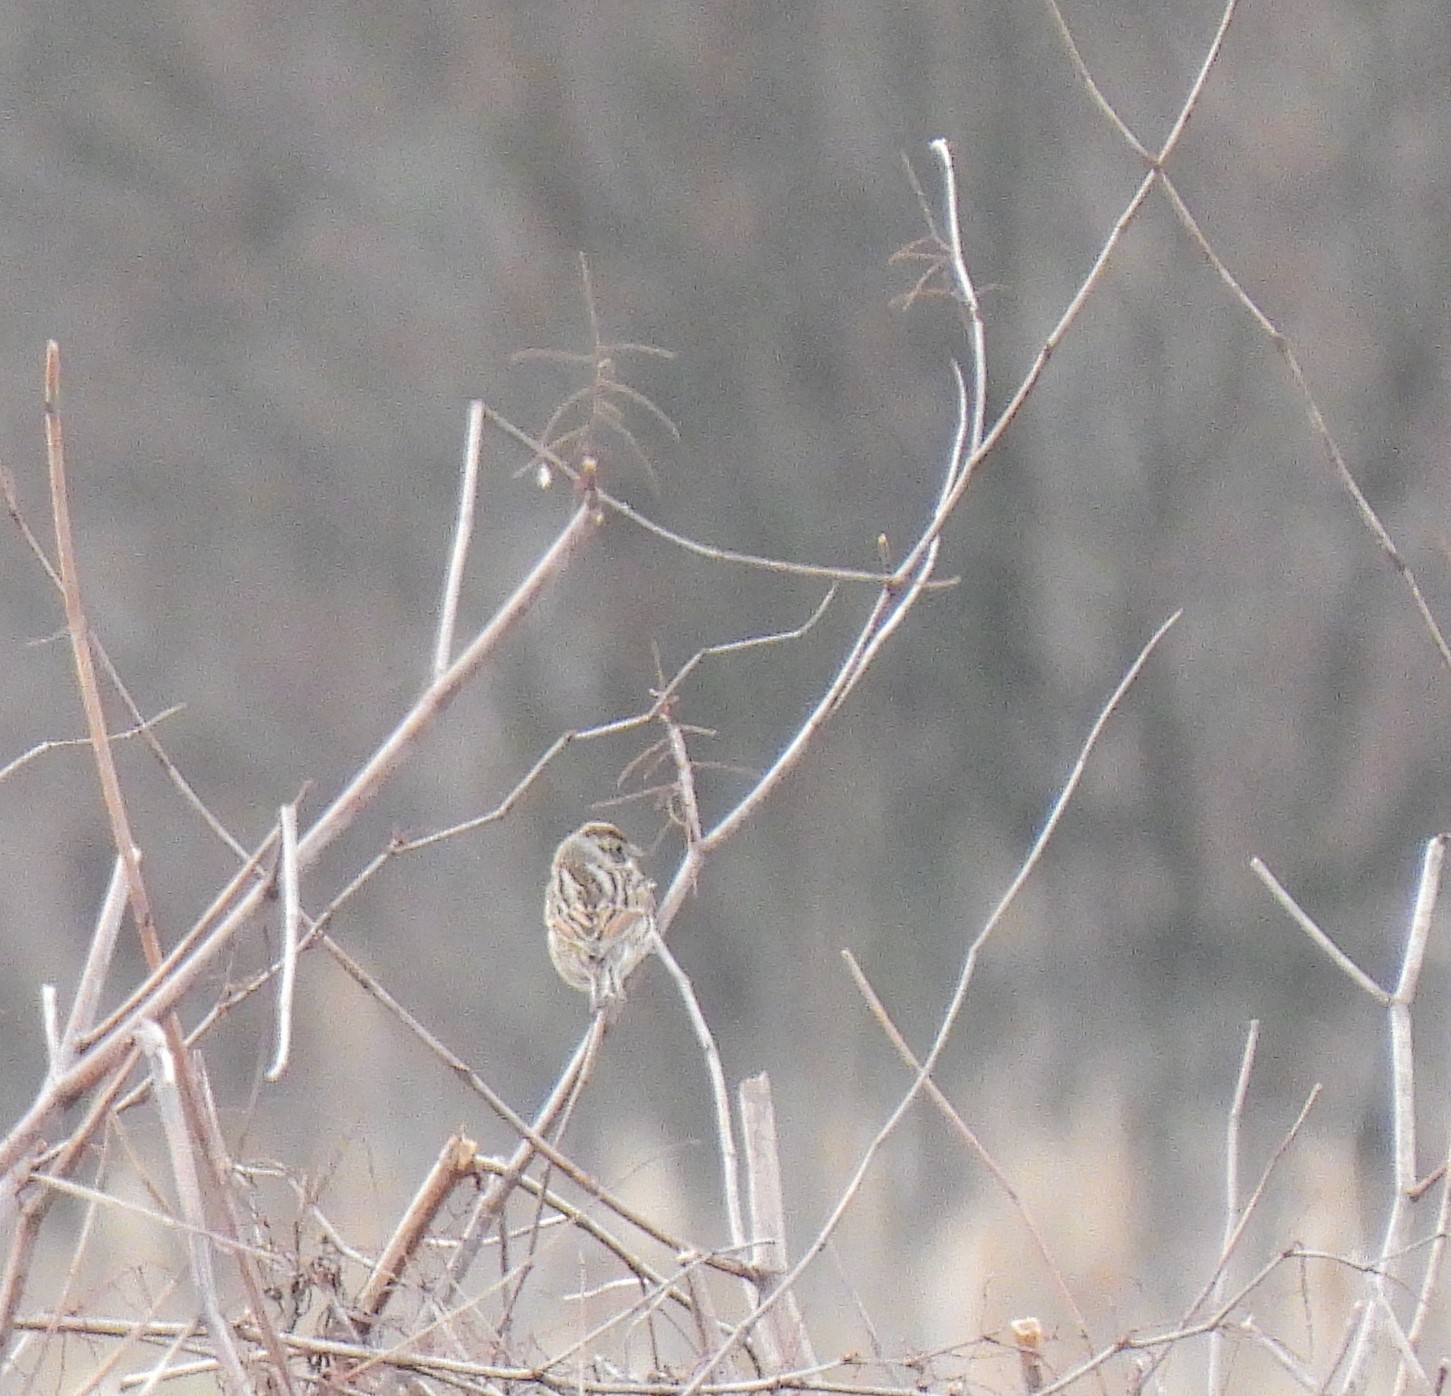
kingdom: Animalia
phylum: Chordata
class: Aves
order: Passeriformes
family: Emberizidae
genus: Emberiza
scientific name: Emberiza schoeniclus
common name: Reed bunting
